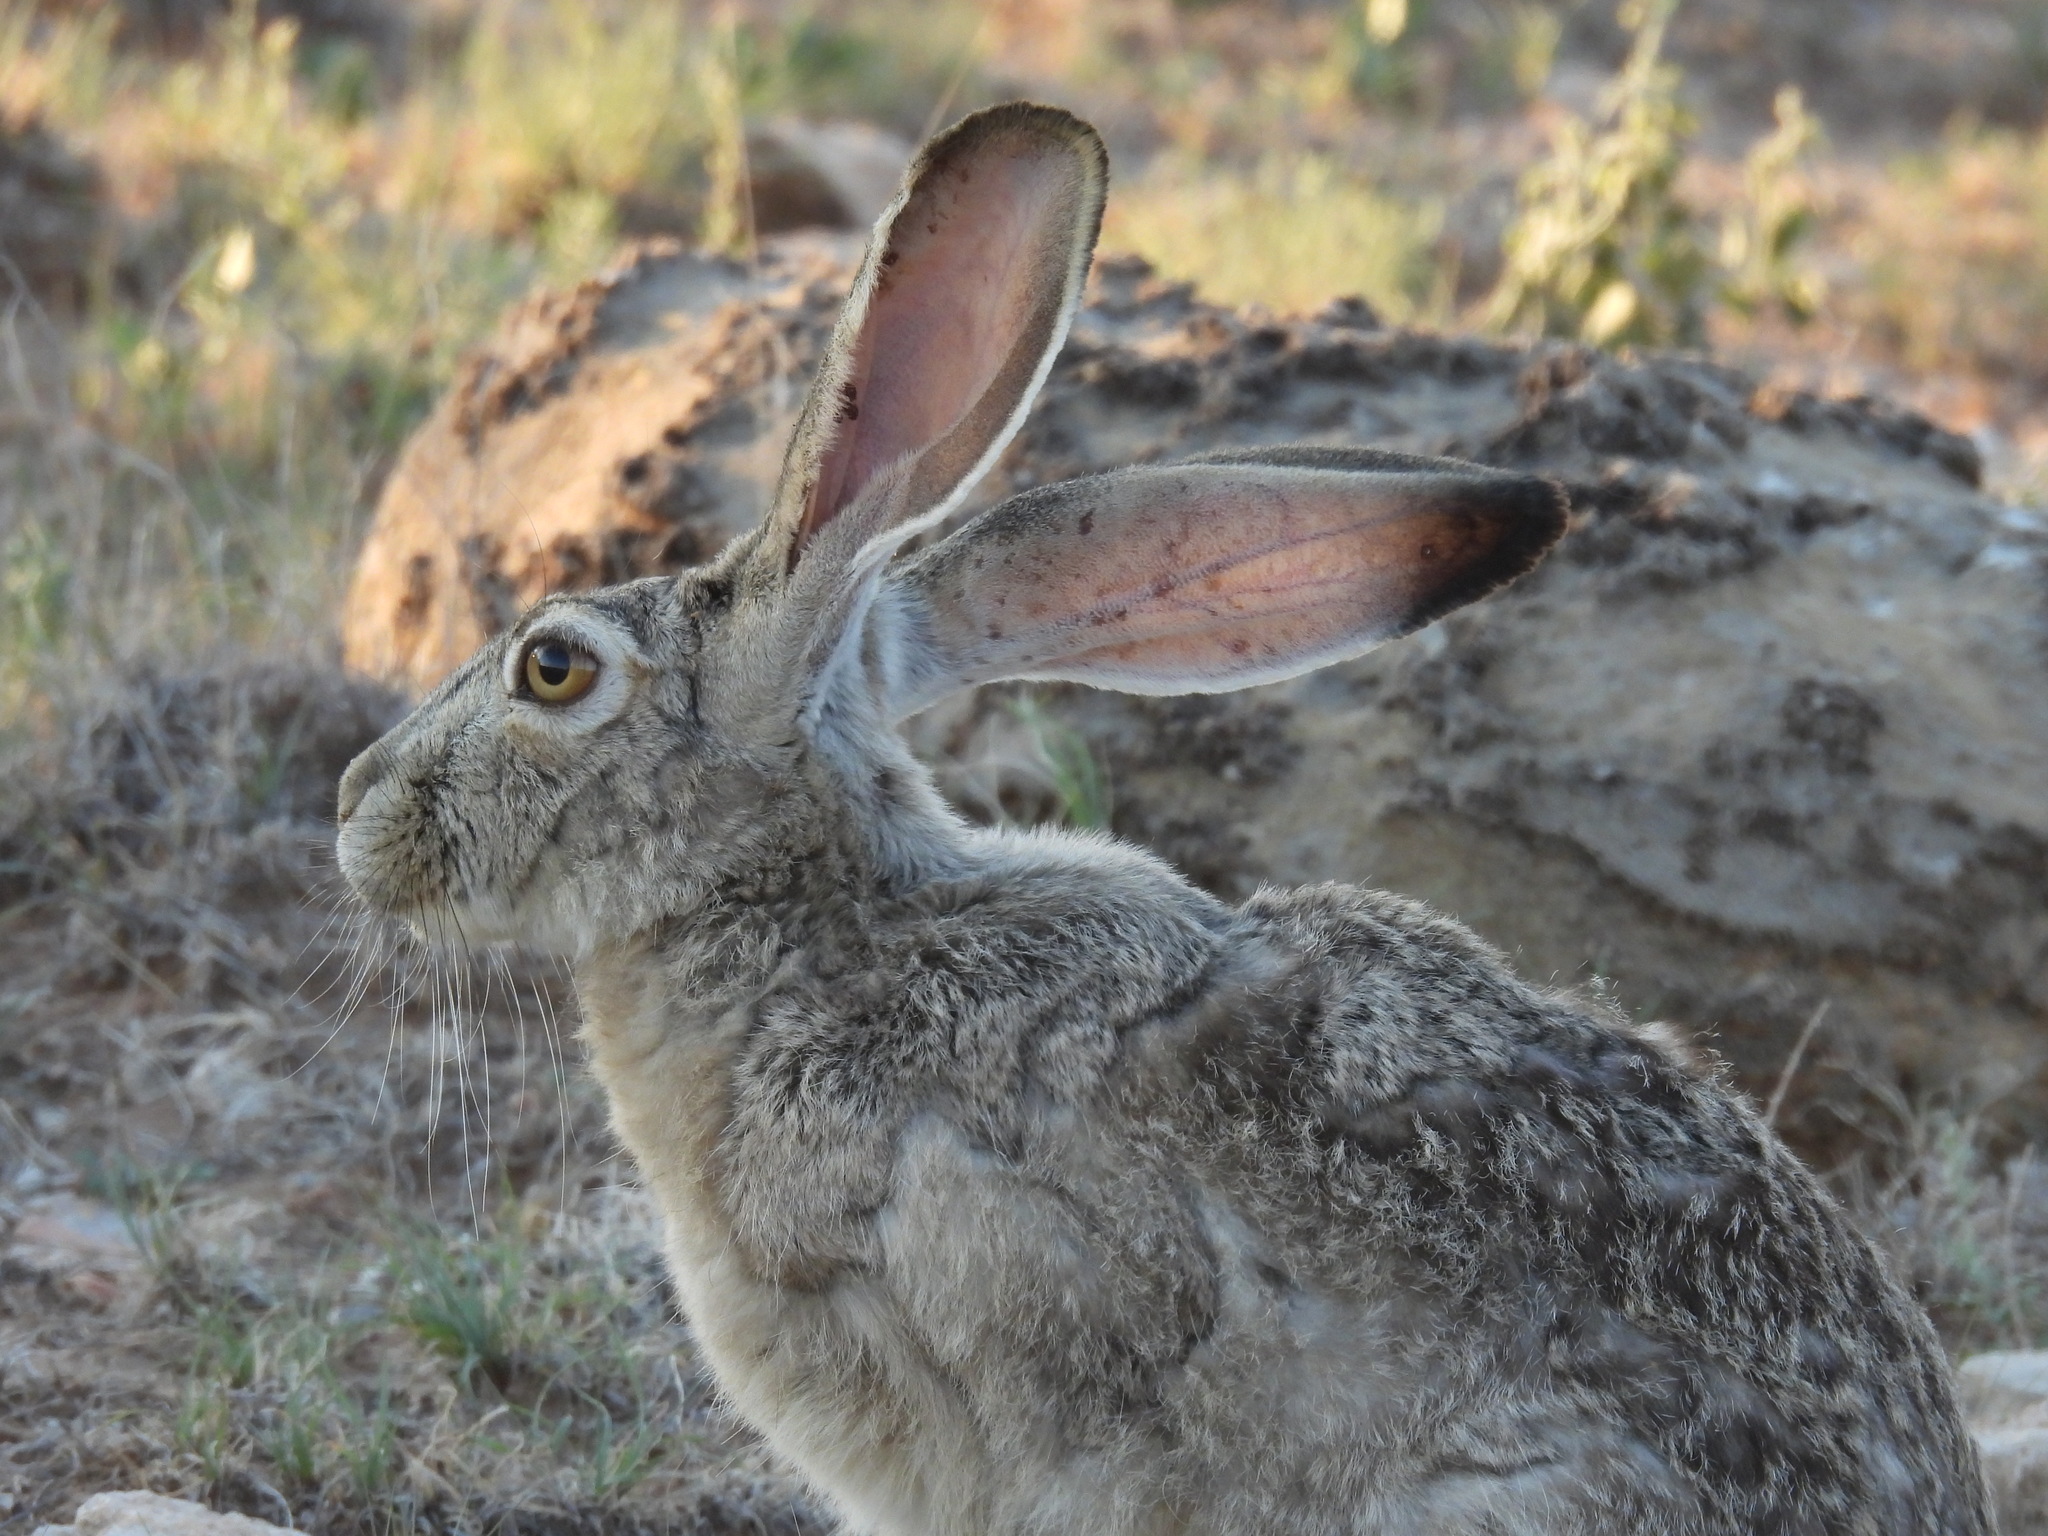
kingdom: Animalia
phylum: Chordata
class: Mammalia
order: Lagomorpha
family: Leporidae
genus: Lepus
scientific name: Lepus californicus
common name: Black-tailed jackrabbit
